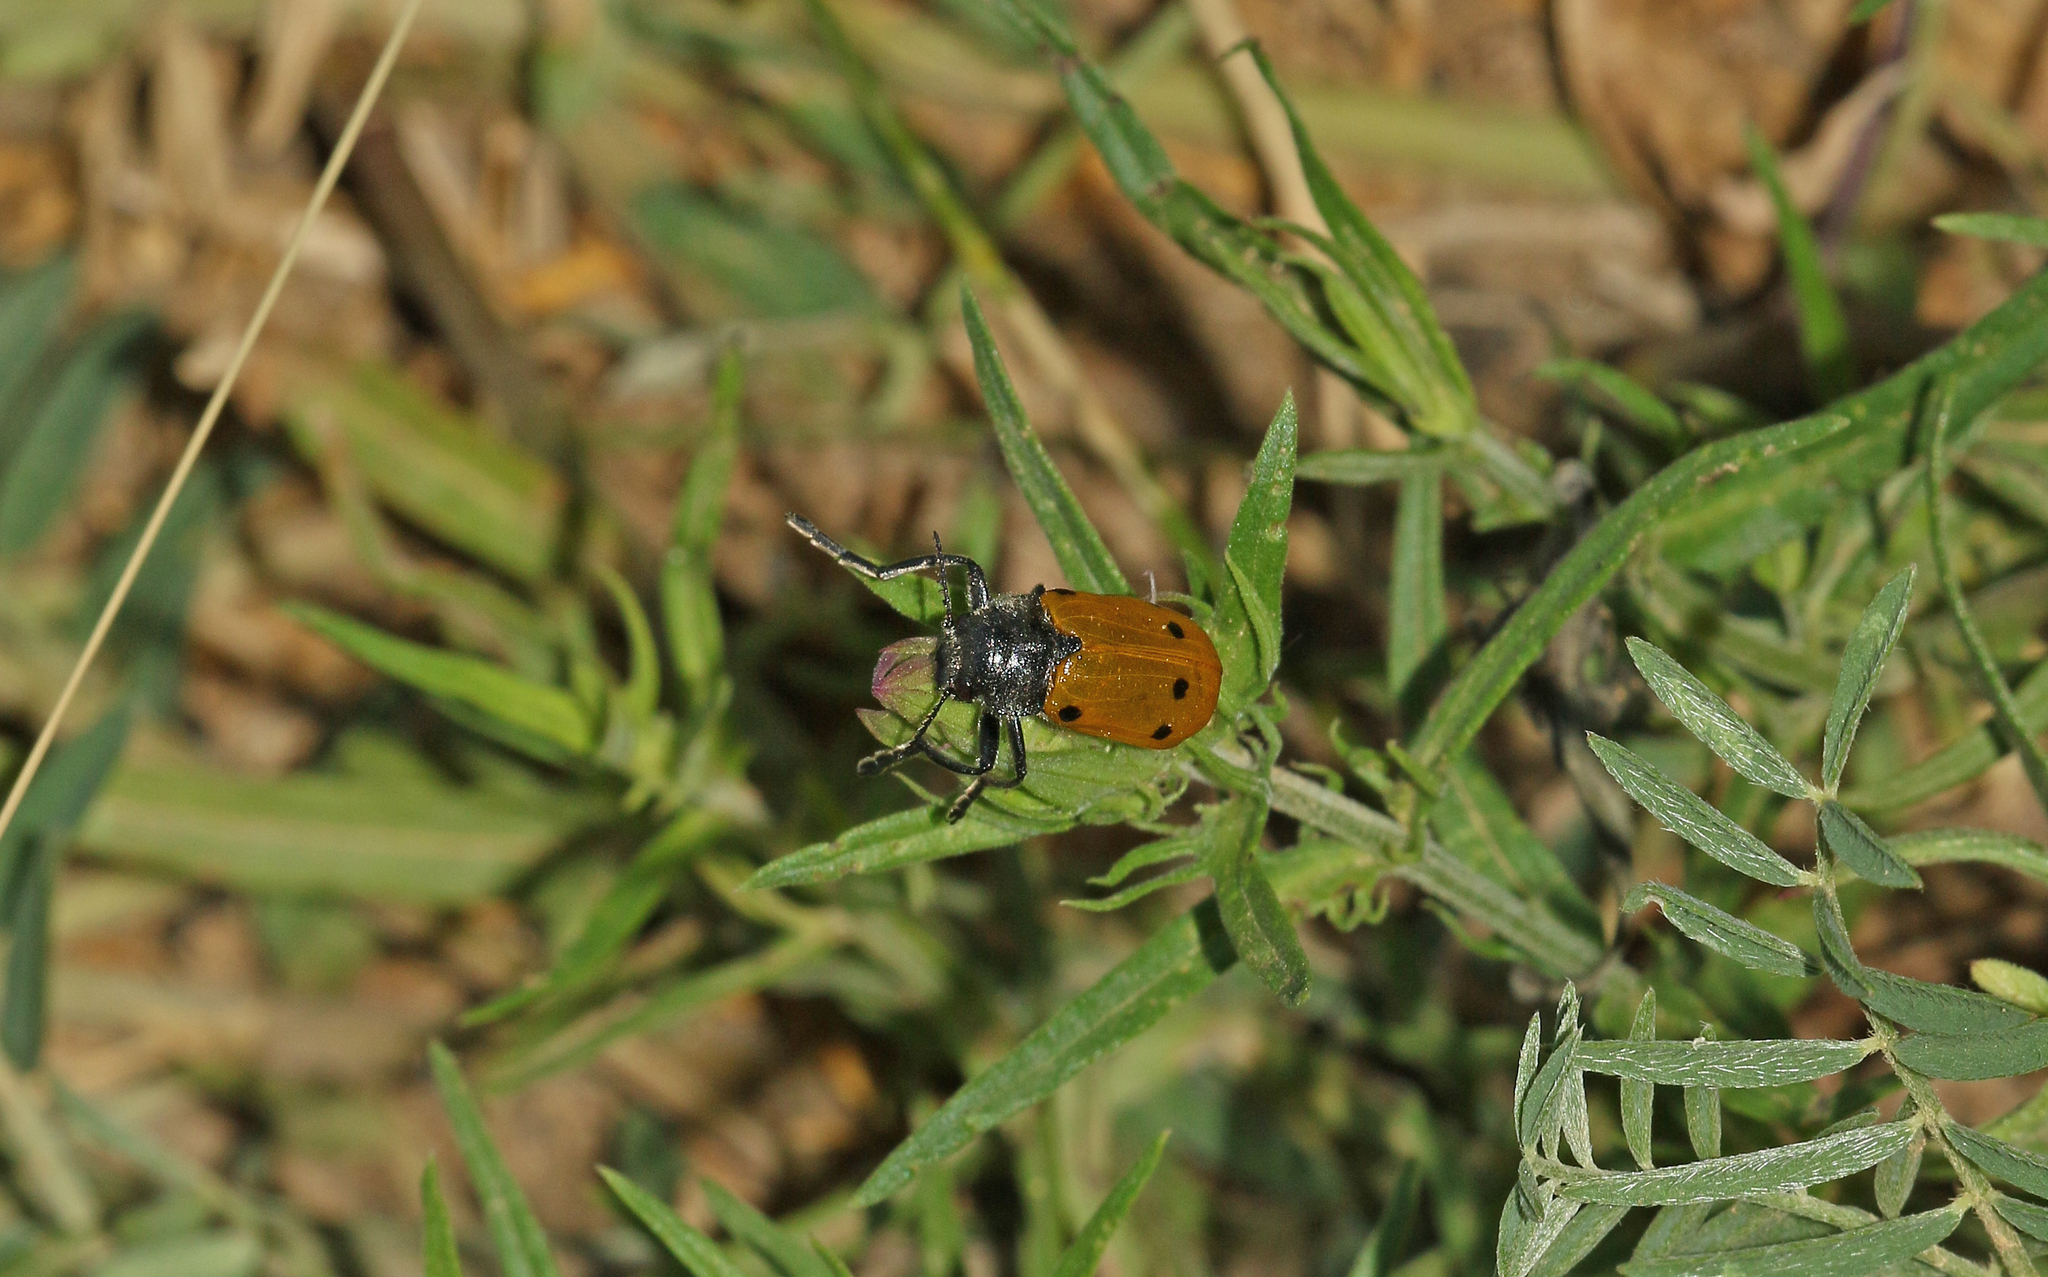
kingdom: Animalia
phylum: Arthropoda
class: Insecta
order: Coleoptera
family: Chrysomelidae
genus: Lachnaia
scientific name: Lachnaia sexpunctata
